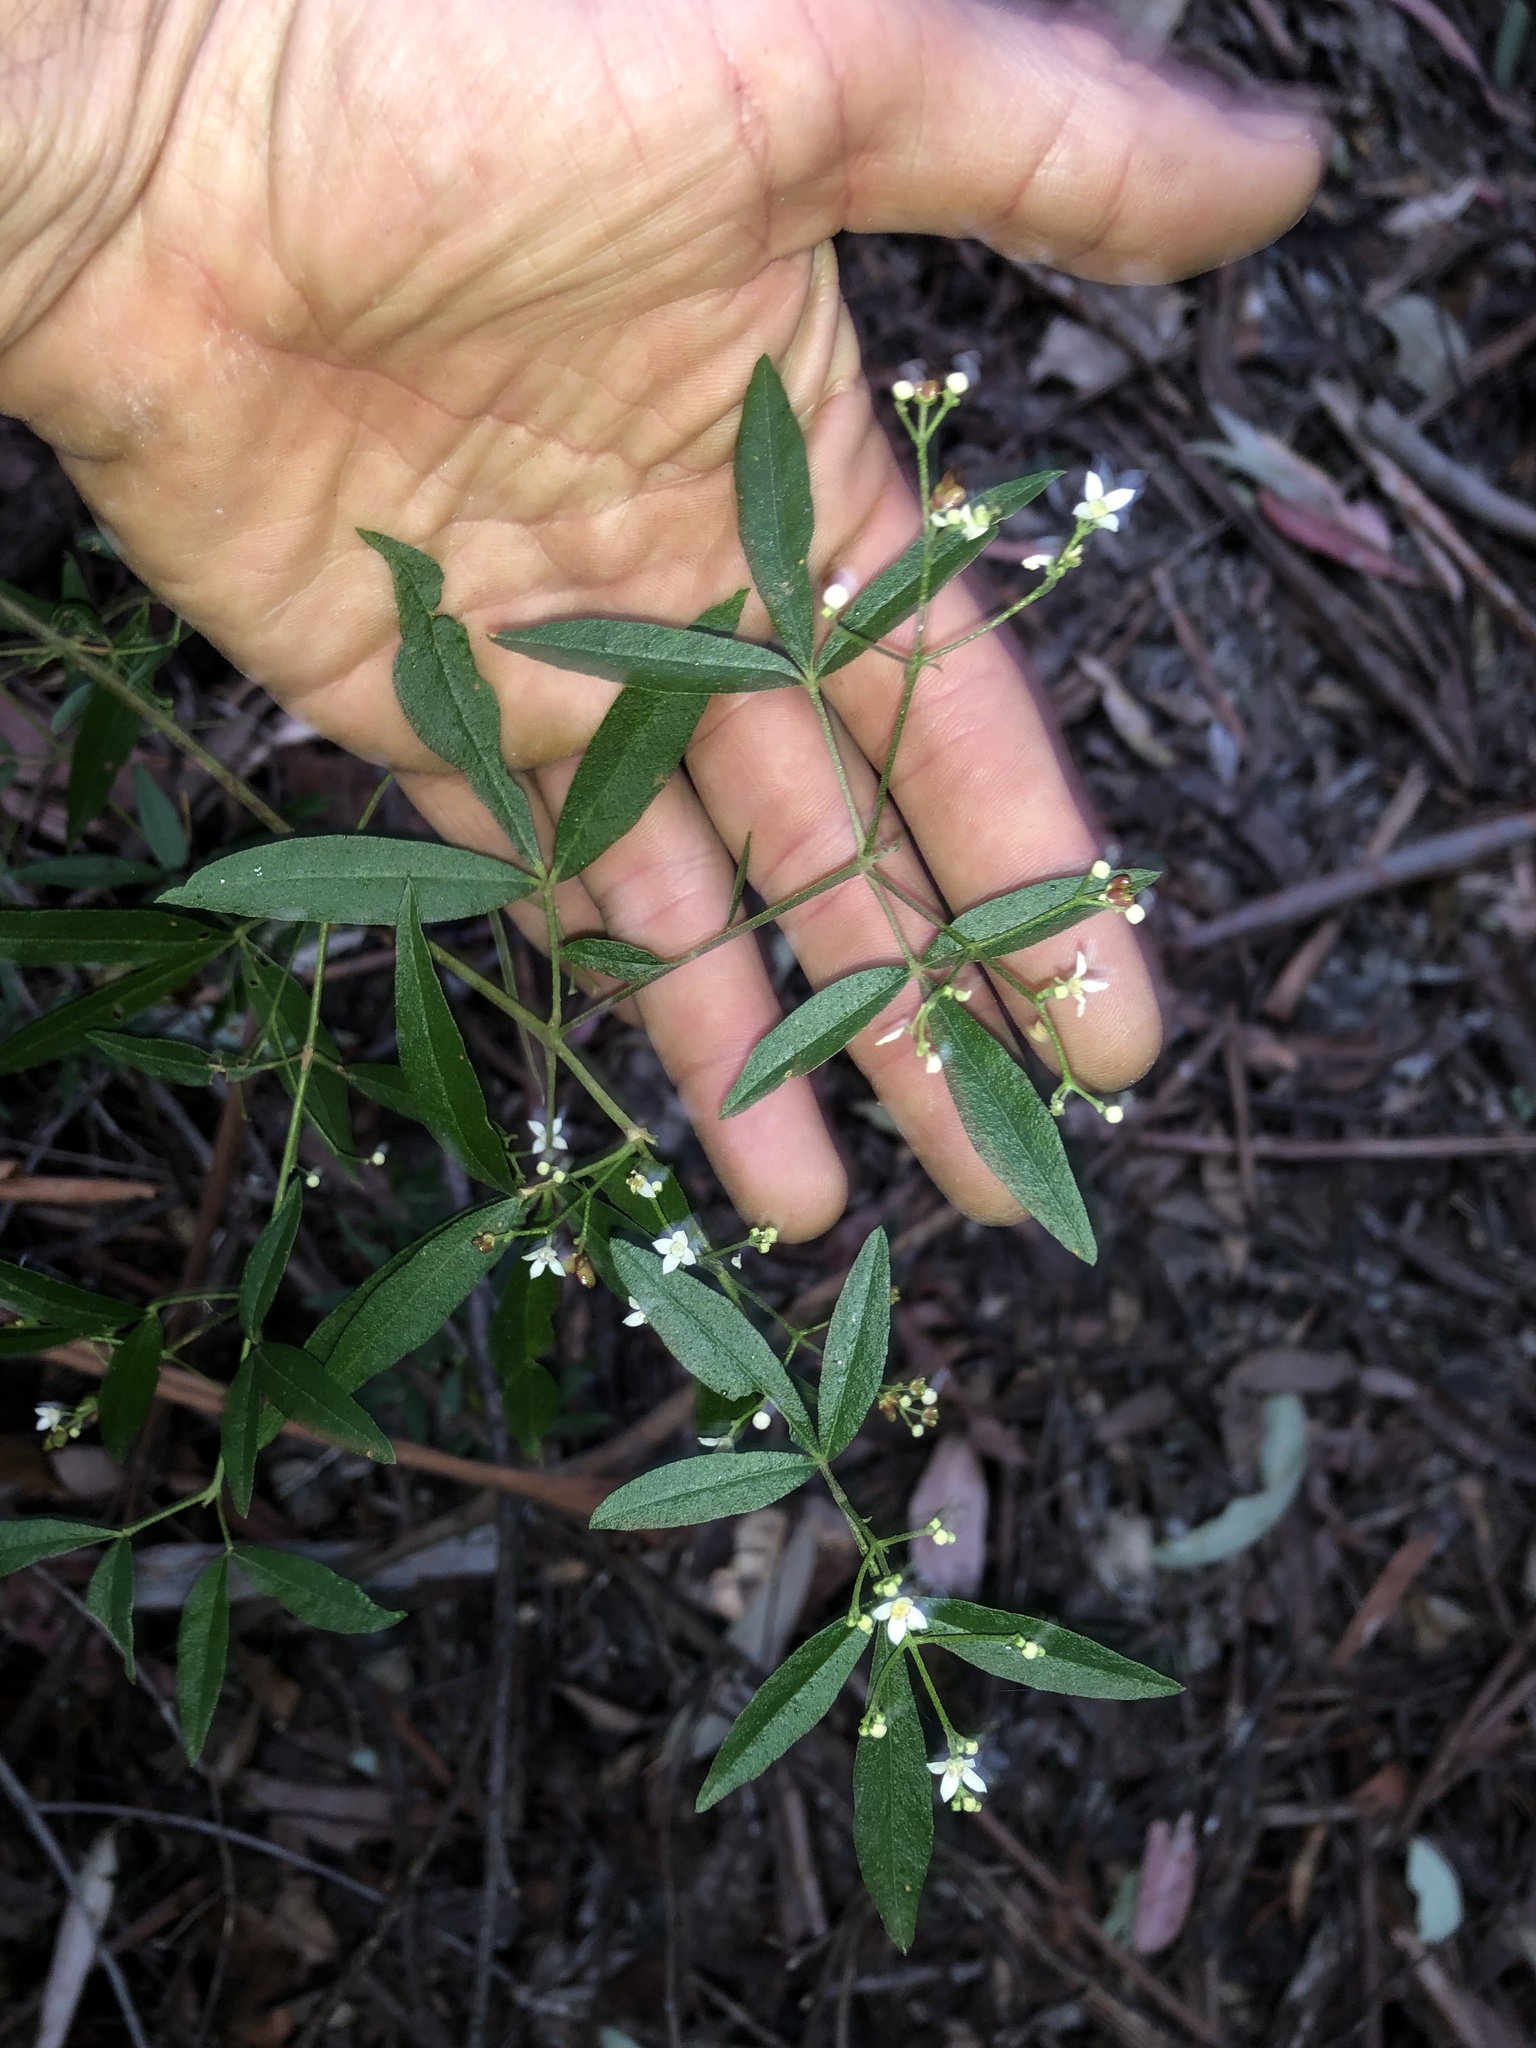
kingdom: Plantae
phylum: Tracheophyta
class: Magnoliopsida
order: Sapindales
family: Rutaceae
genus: Zieria
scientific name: Zieria smithii
